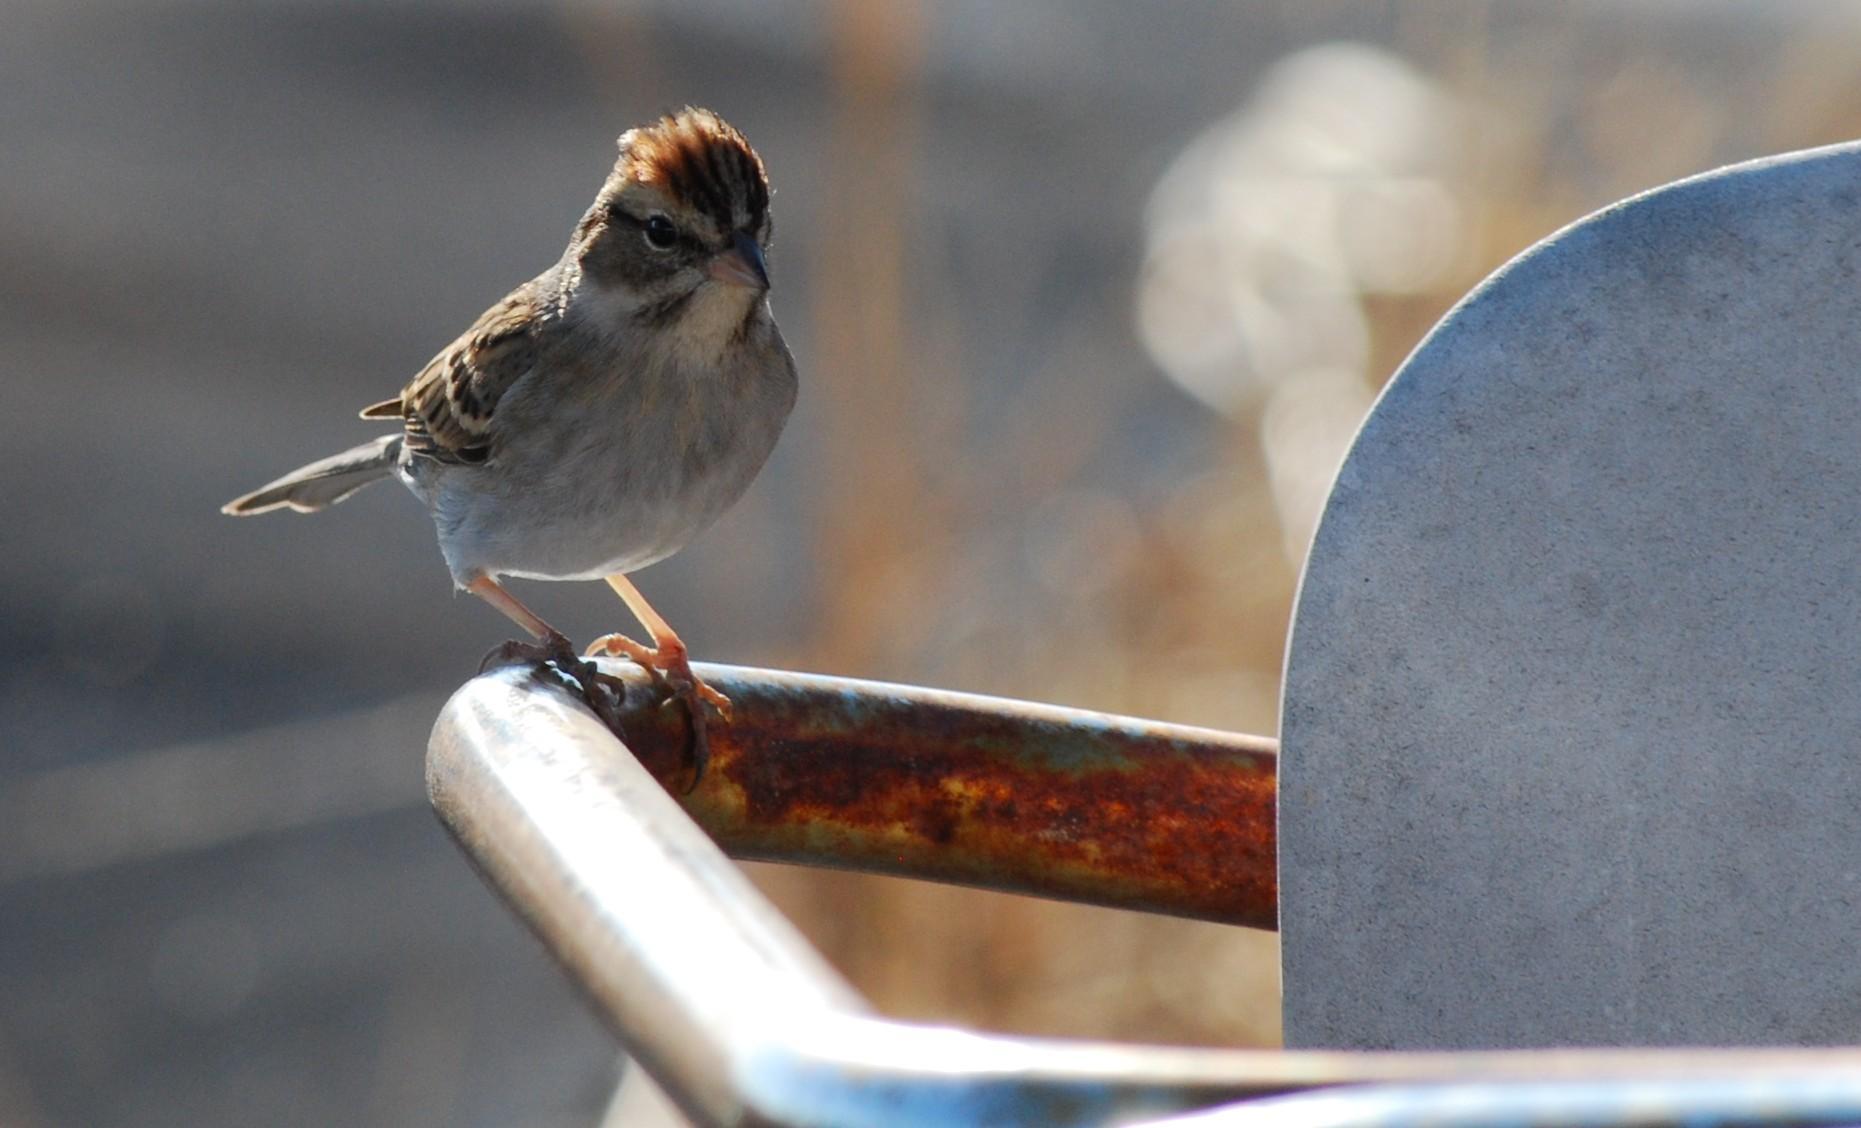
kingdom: Animalia
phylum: Chordata
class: Aves
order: Passeriformes
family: Passerellidae
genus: Spizella
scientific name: Spizella passerina
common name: Chipping sparrow
